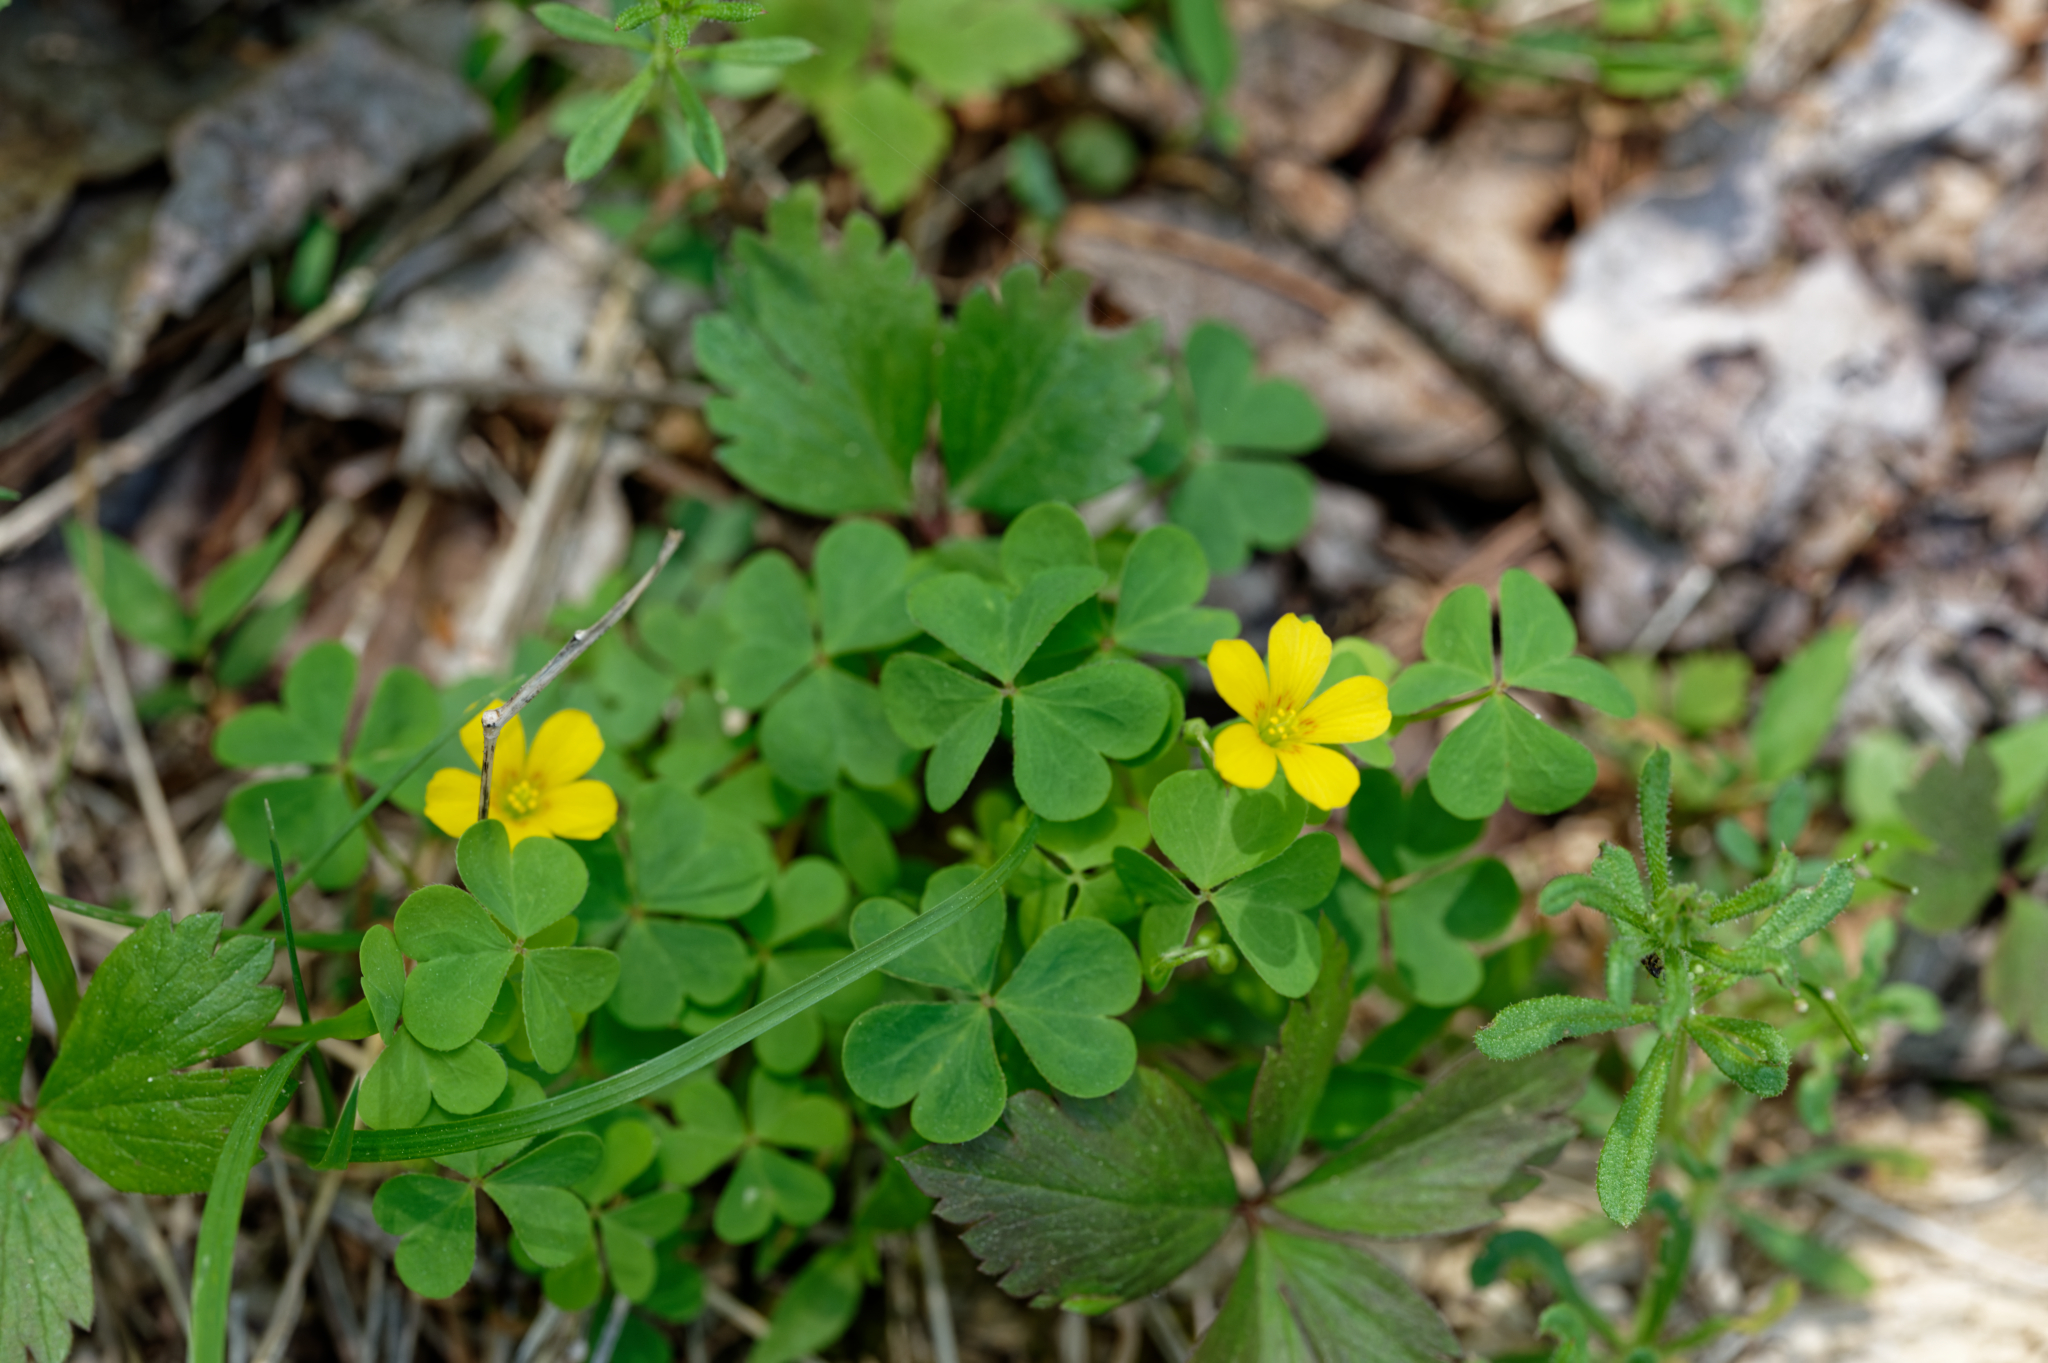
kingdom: Plantae
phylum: Tracheophyta
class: Magnoliopsida
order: Oxalidales
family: Oxalidaceae
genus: Oxalis
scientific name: Oxalis stricta
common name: Upright yellow-sorrel
